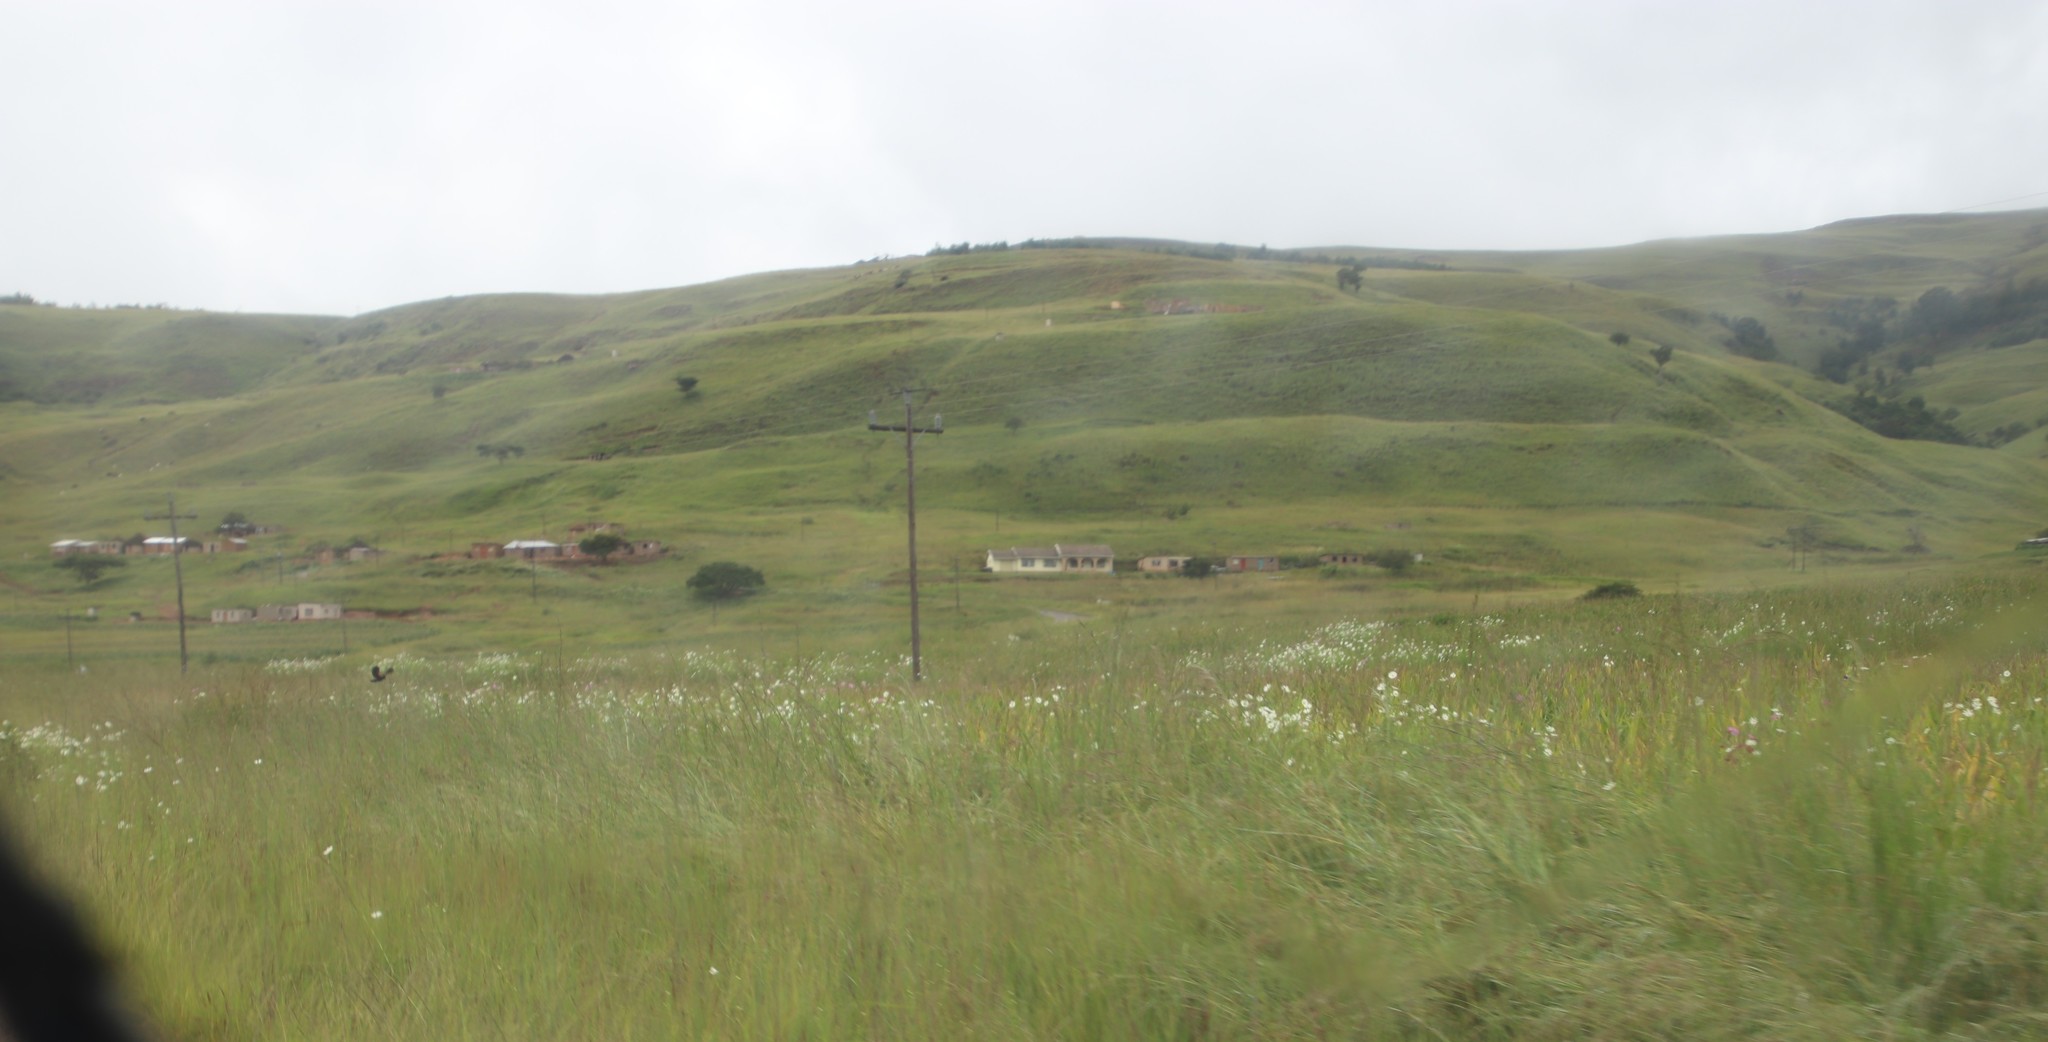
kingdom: Plantae
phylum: Tracheophyta
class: Magnoliopsida
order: Asterales
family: Asteraceae
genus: Cosmos
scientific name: Cosmos bipinnatus
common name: Garden cosmos
